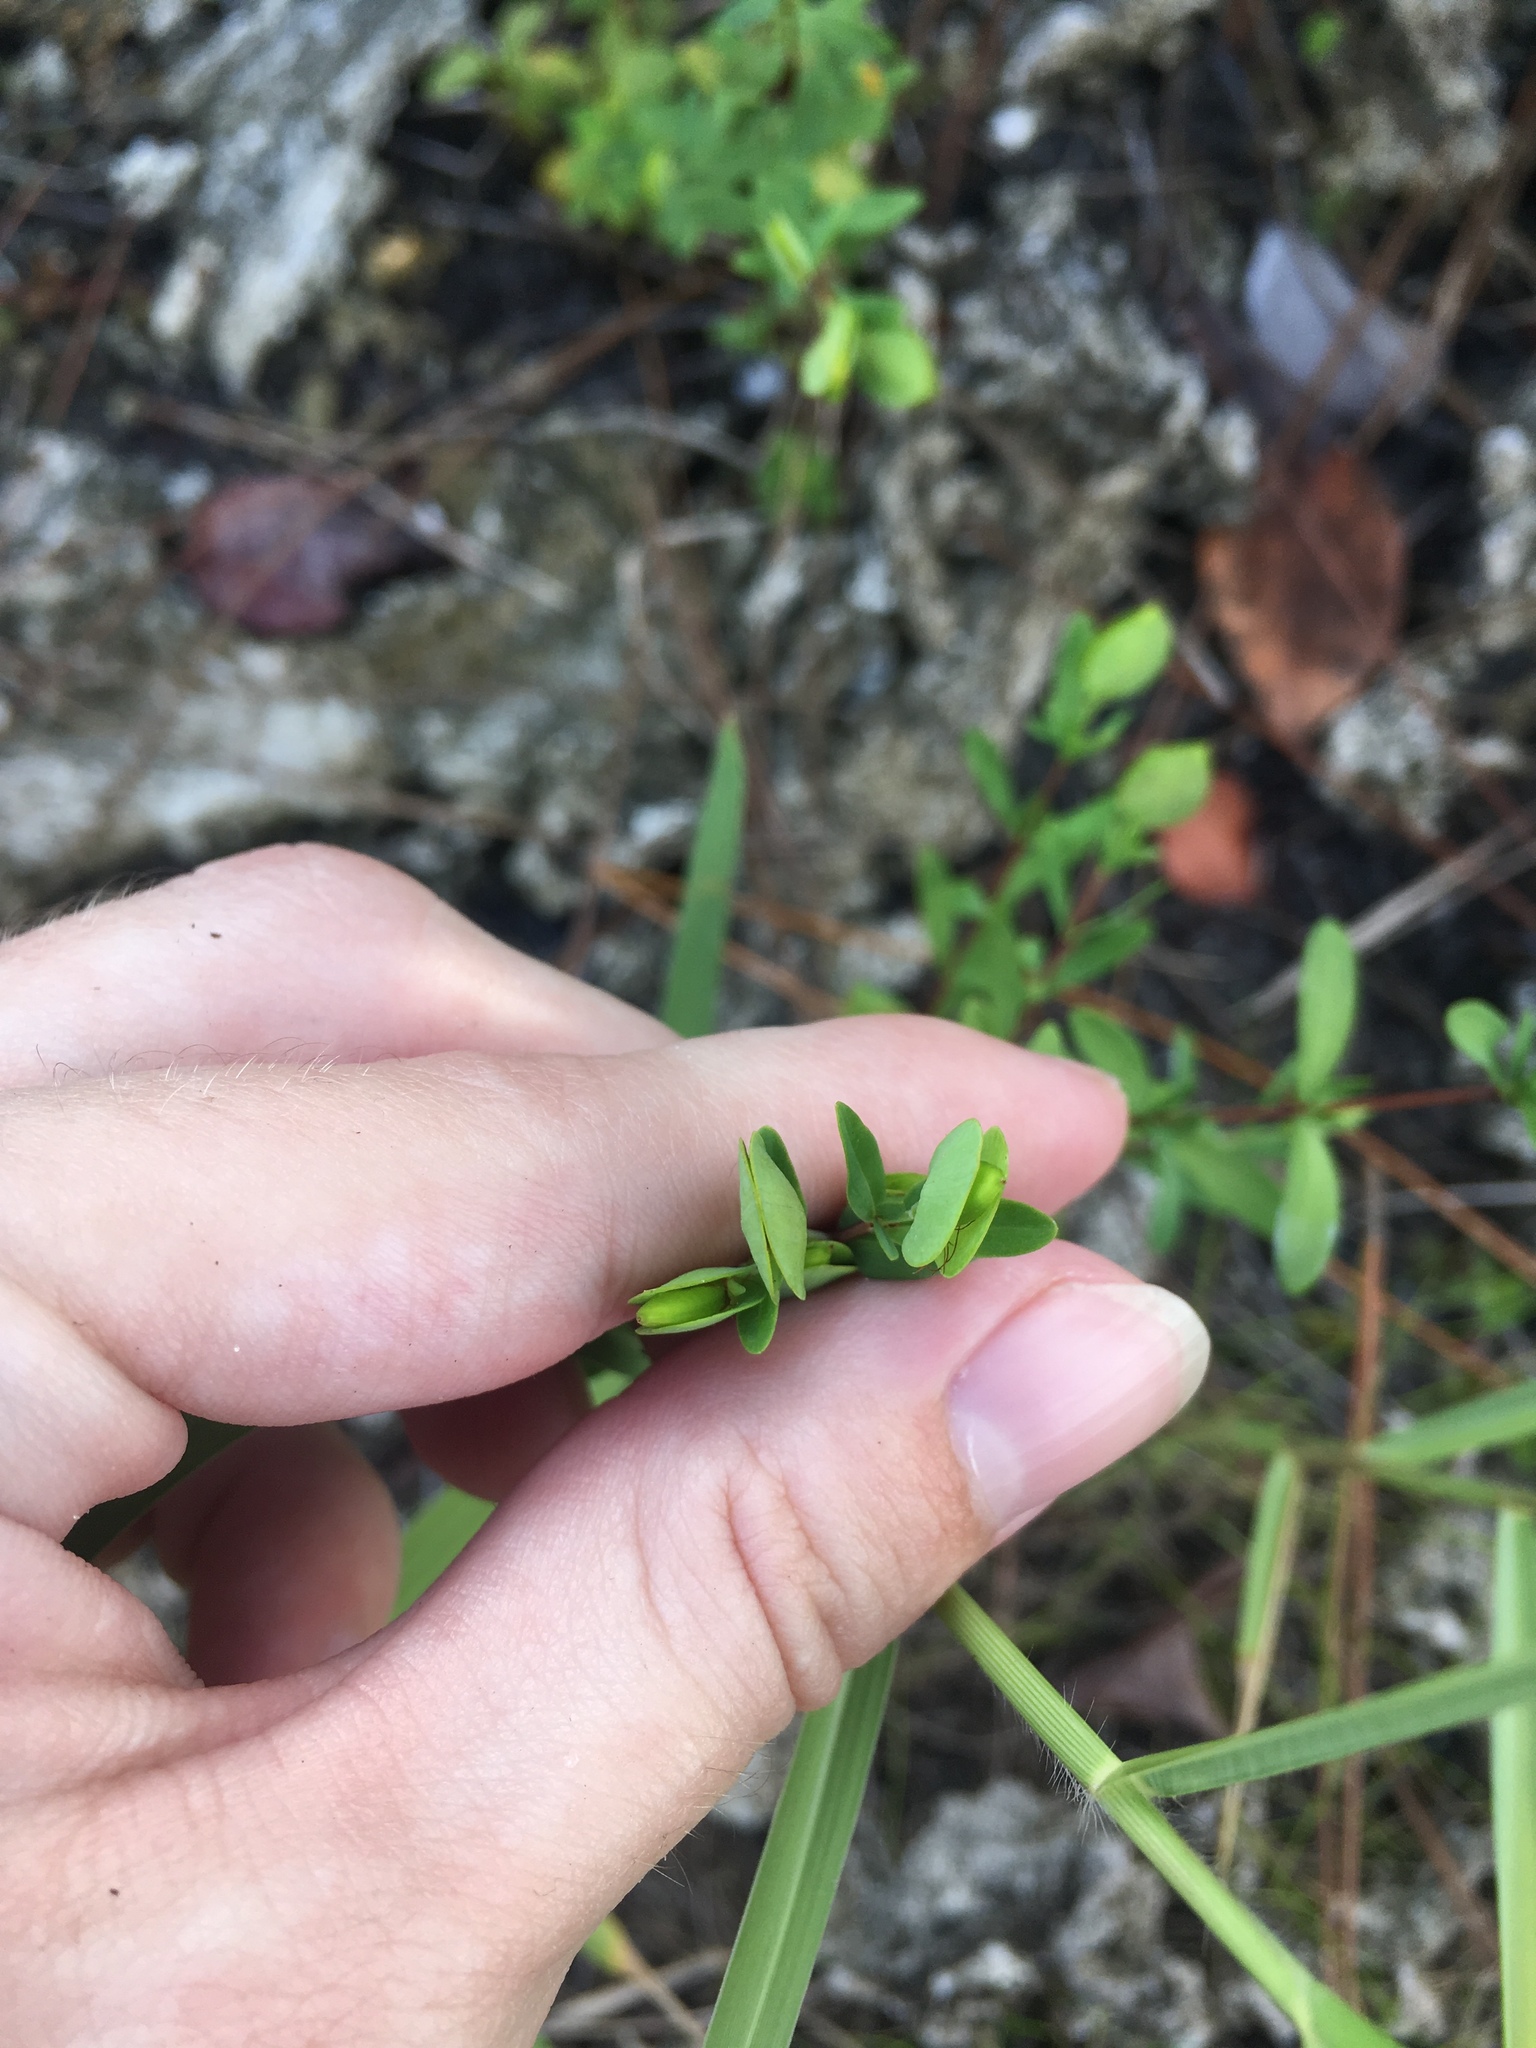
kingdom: Plantae
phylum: Tracheophyta
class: Magnoliopsida
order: Malpighiales
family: Hypericaceae
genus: Hypericum
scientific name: Hypericum hypericoides
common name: St. andrew's cross
